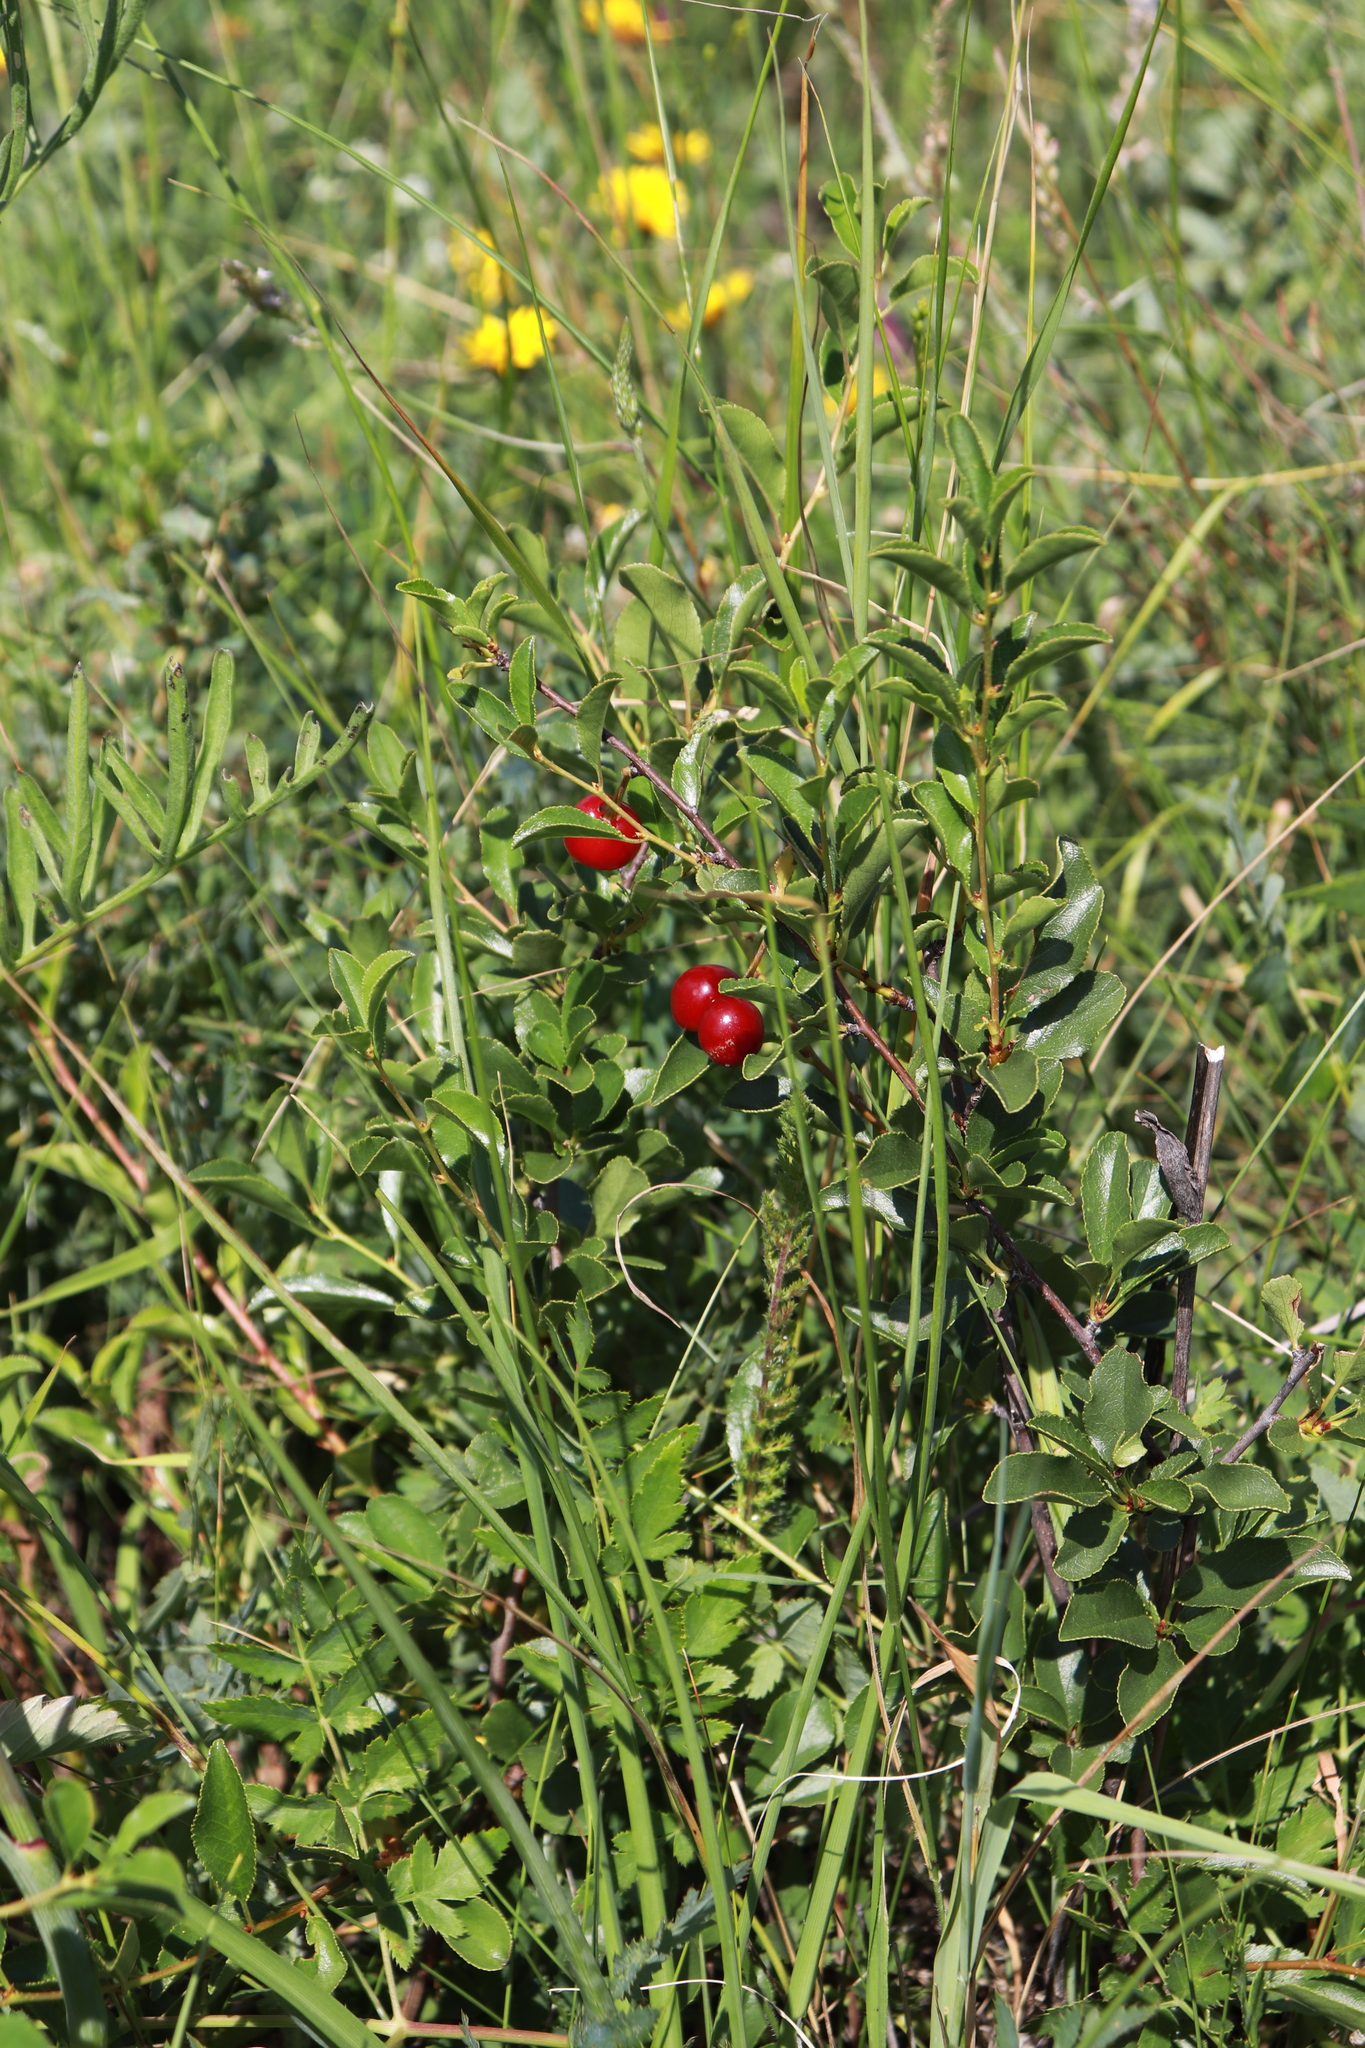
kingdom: Plantae
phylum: Tracheophyta
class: Magnoliopsida
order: Rosales
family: Rosaceae
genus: Prunus
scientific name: Prunus fruticosa
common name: European dwarf cherry
